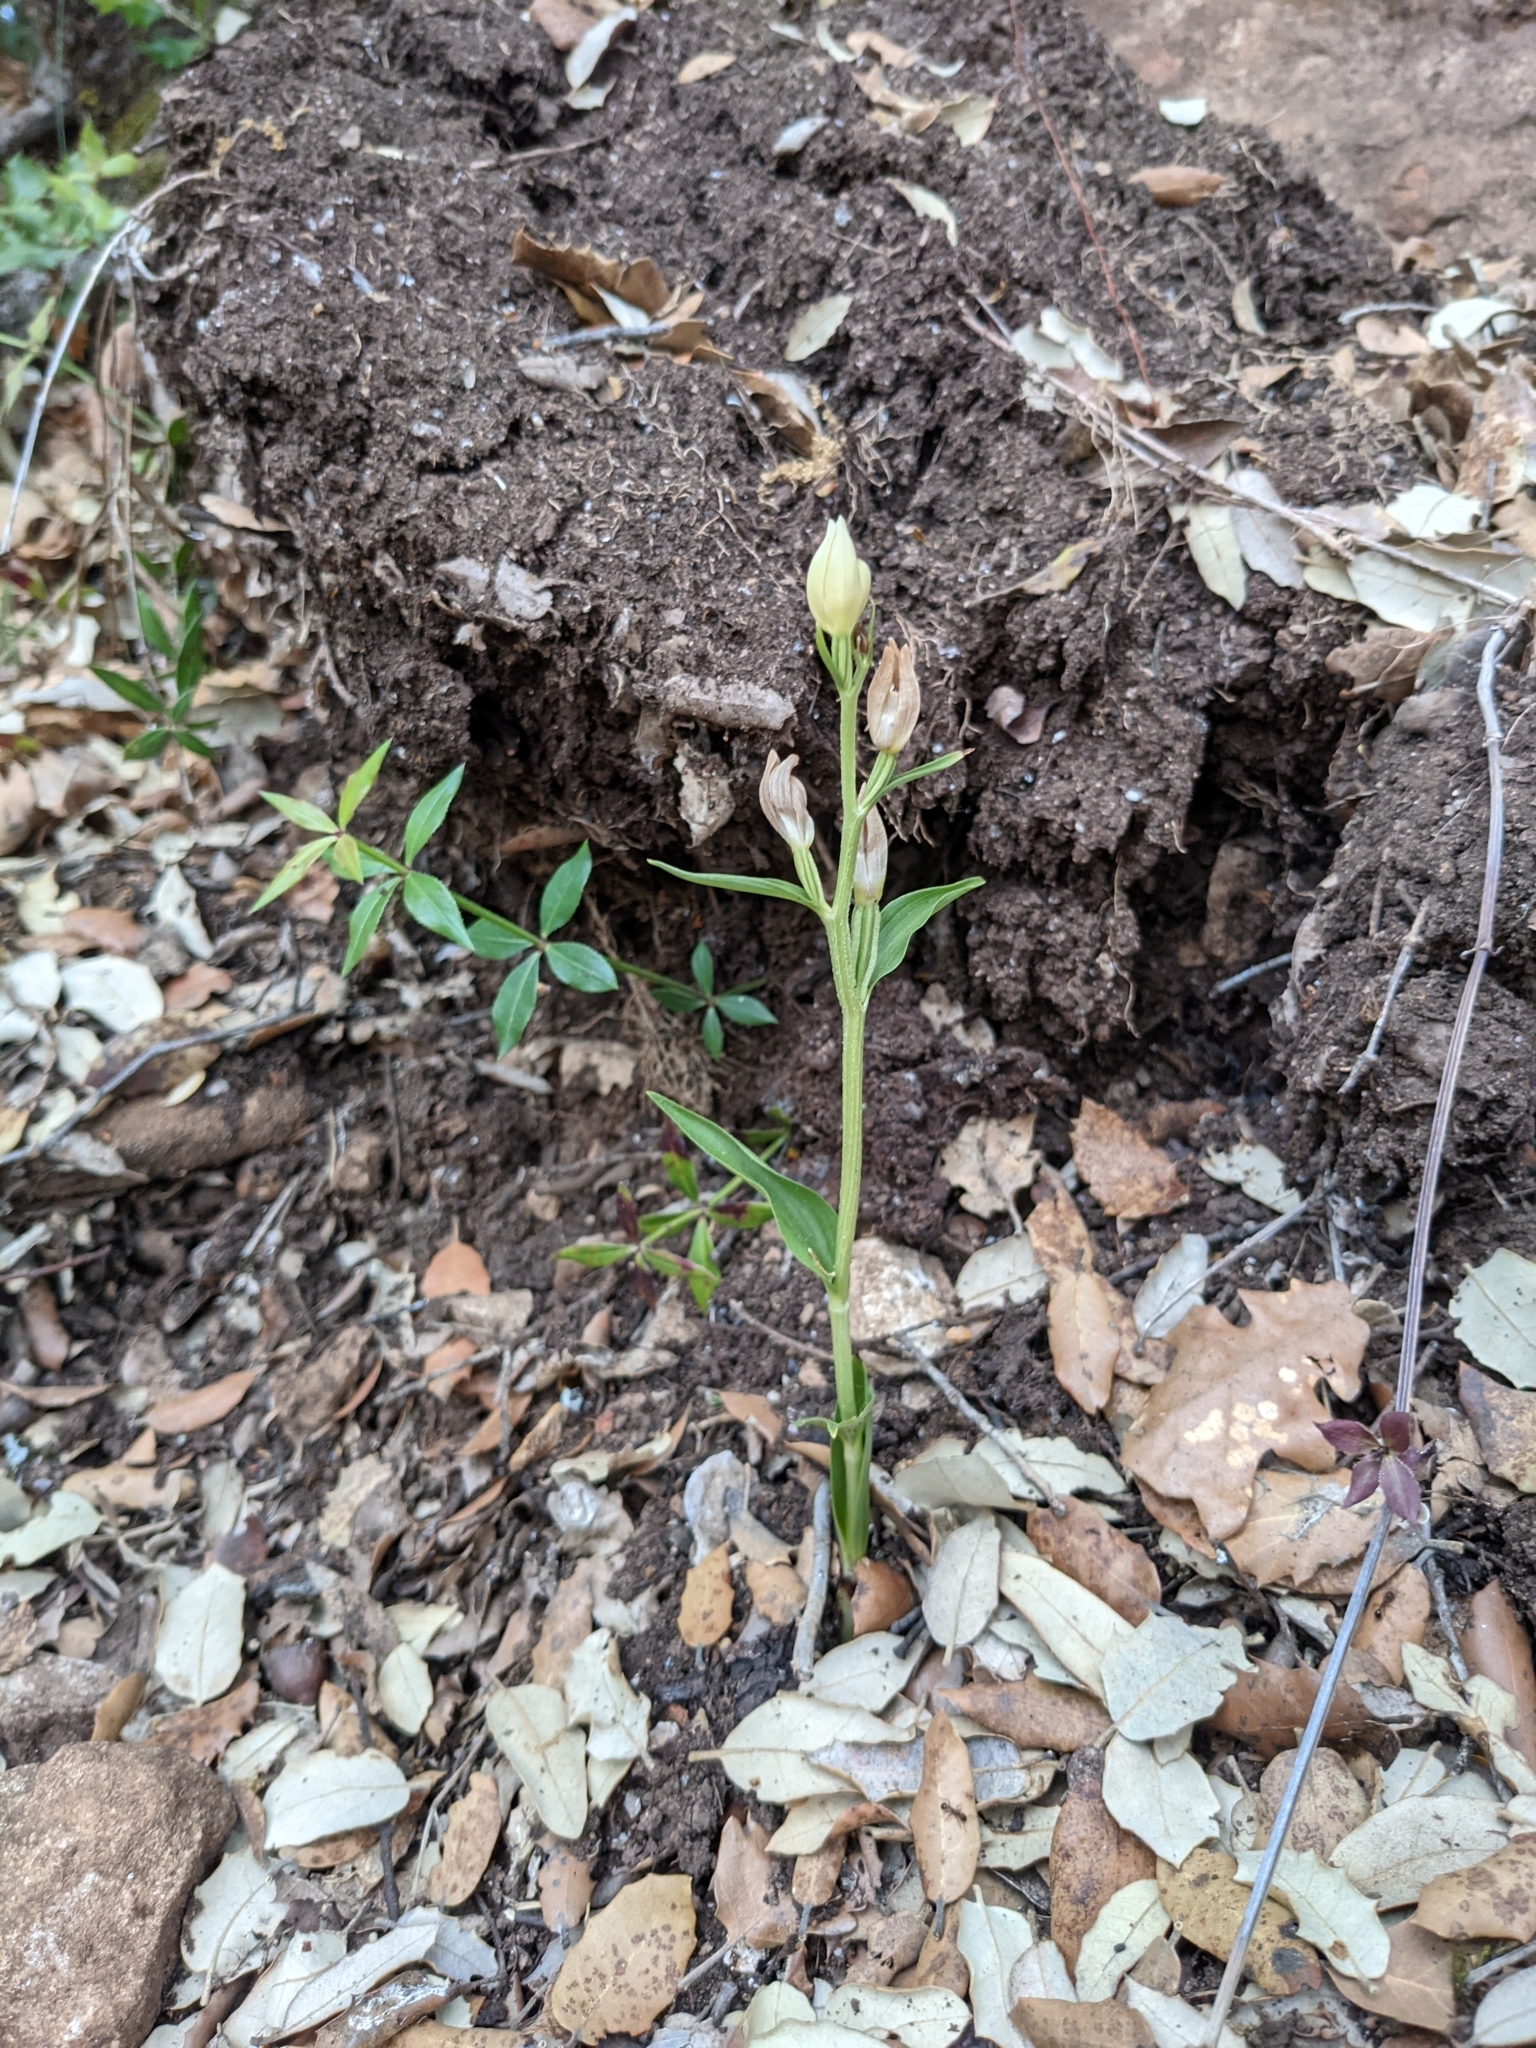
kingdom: Plantae
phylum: Tracheophyta
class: Liliopsida
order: Asparagales
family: Orchidaceae
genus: Cephalanthera
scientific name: Cephalanthera damasonium
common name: White helleborine
